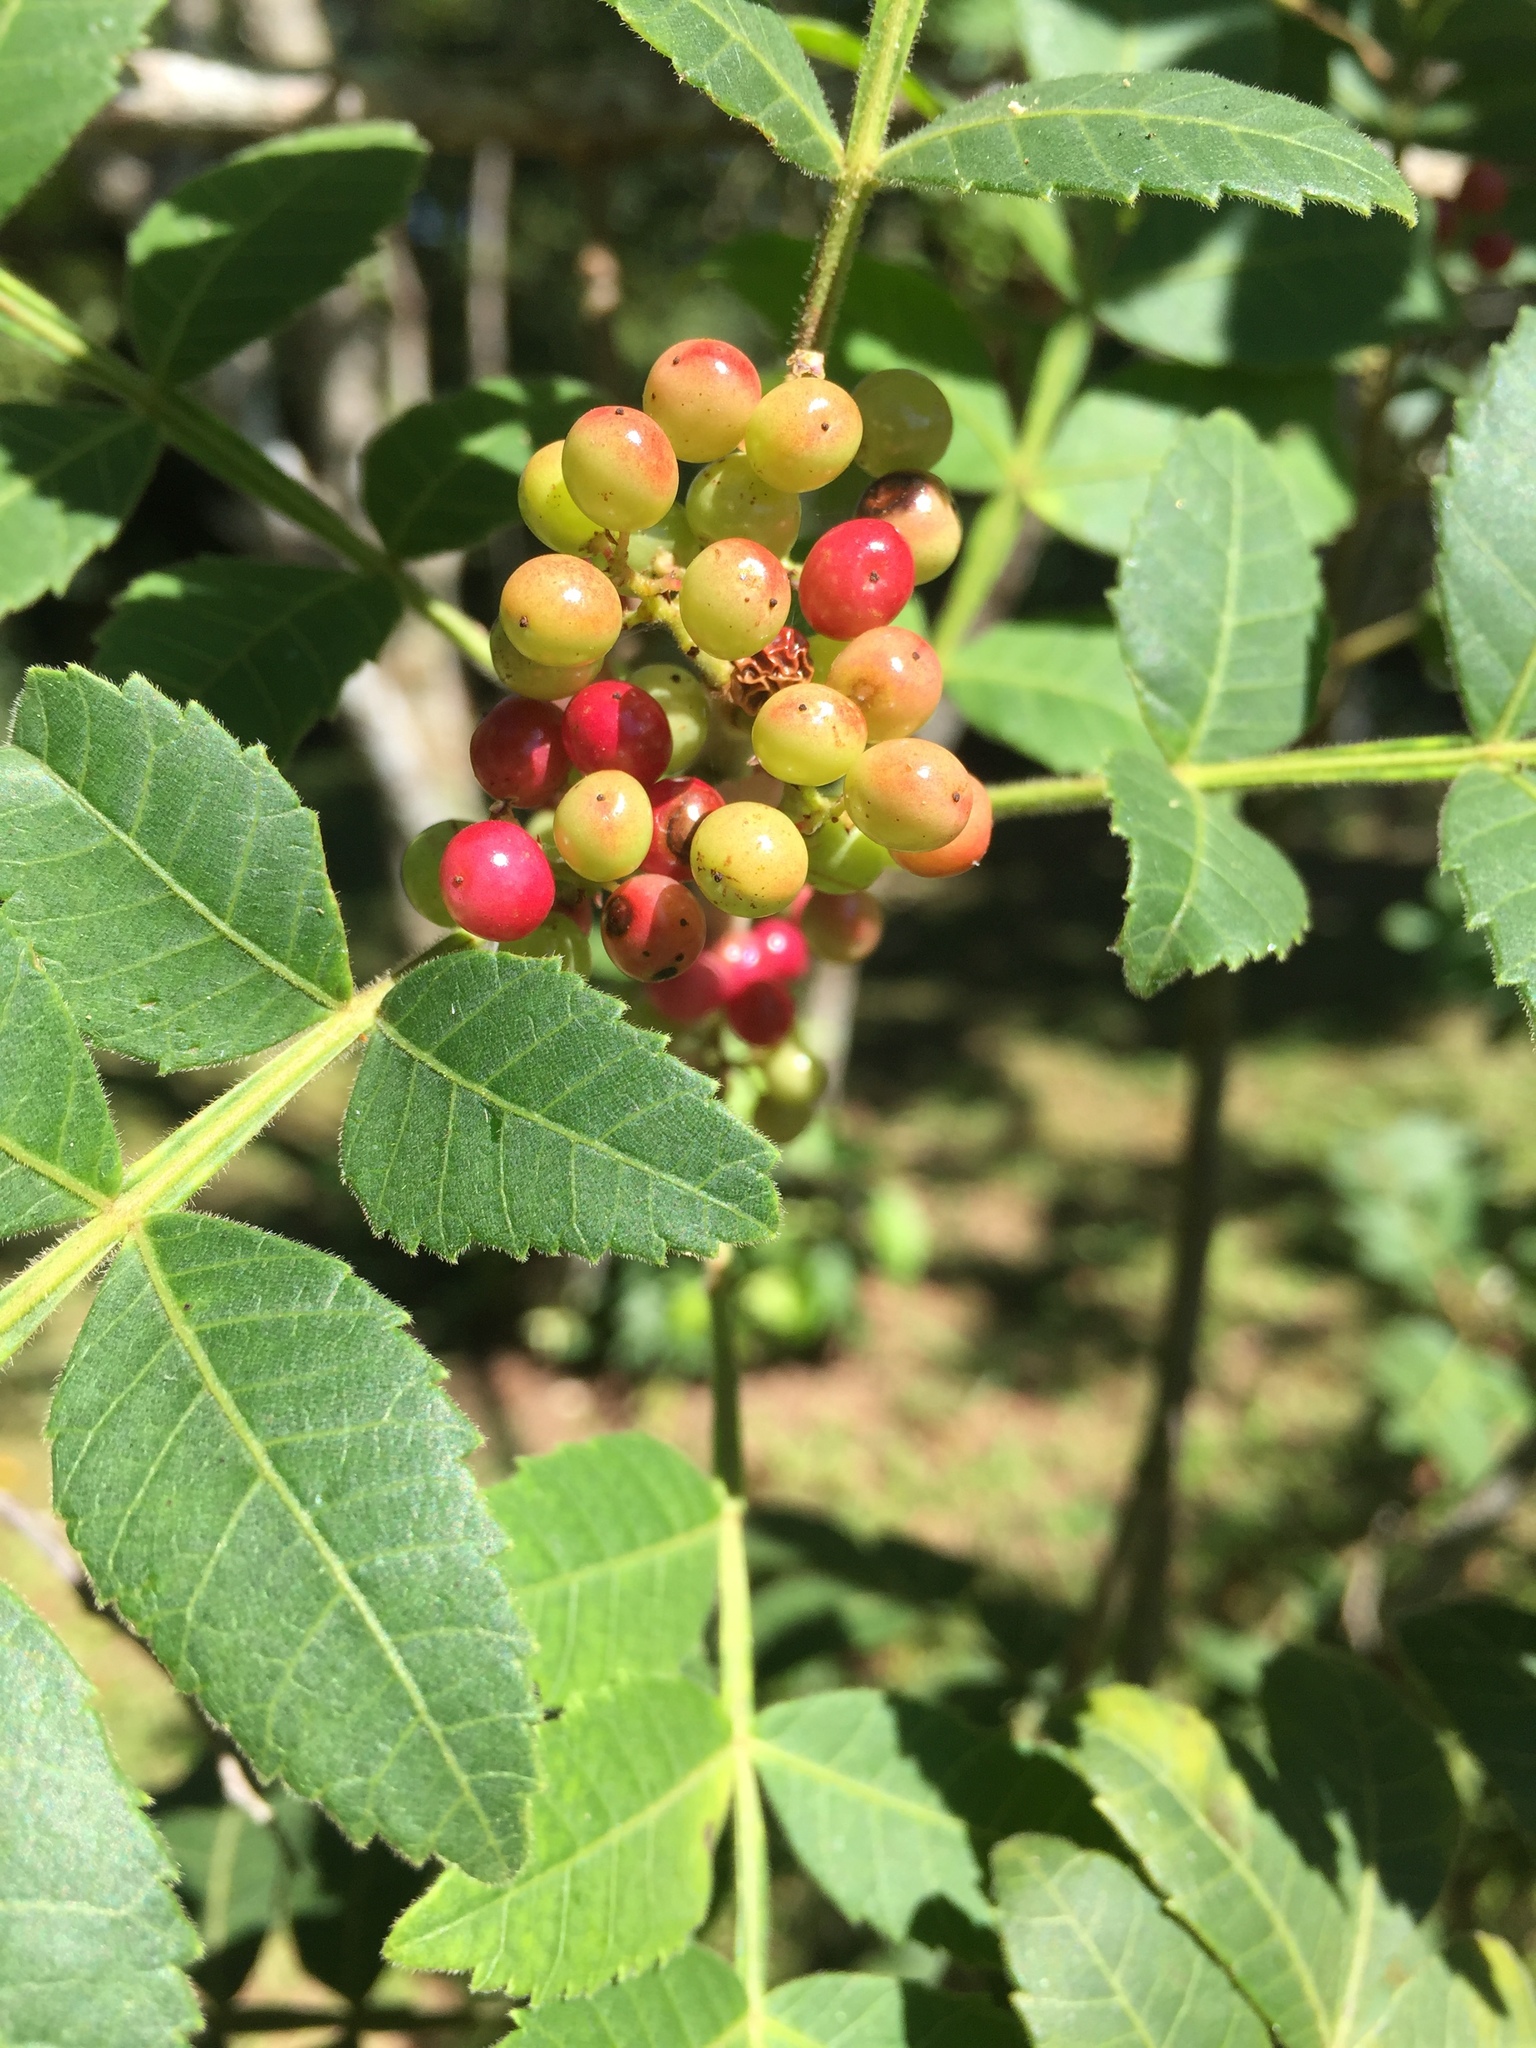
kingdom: Plantae
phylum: Tracheophyta
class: Magnoliopsida
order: Sapindales
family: Anacardiaceae
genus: Schinus
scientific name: Schinus terebinthifolia
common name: Brazilian peppertree
